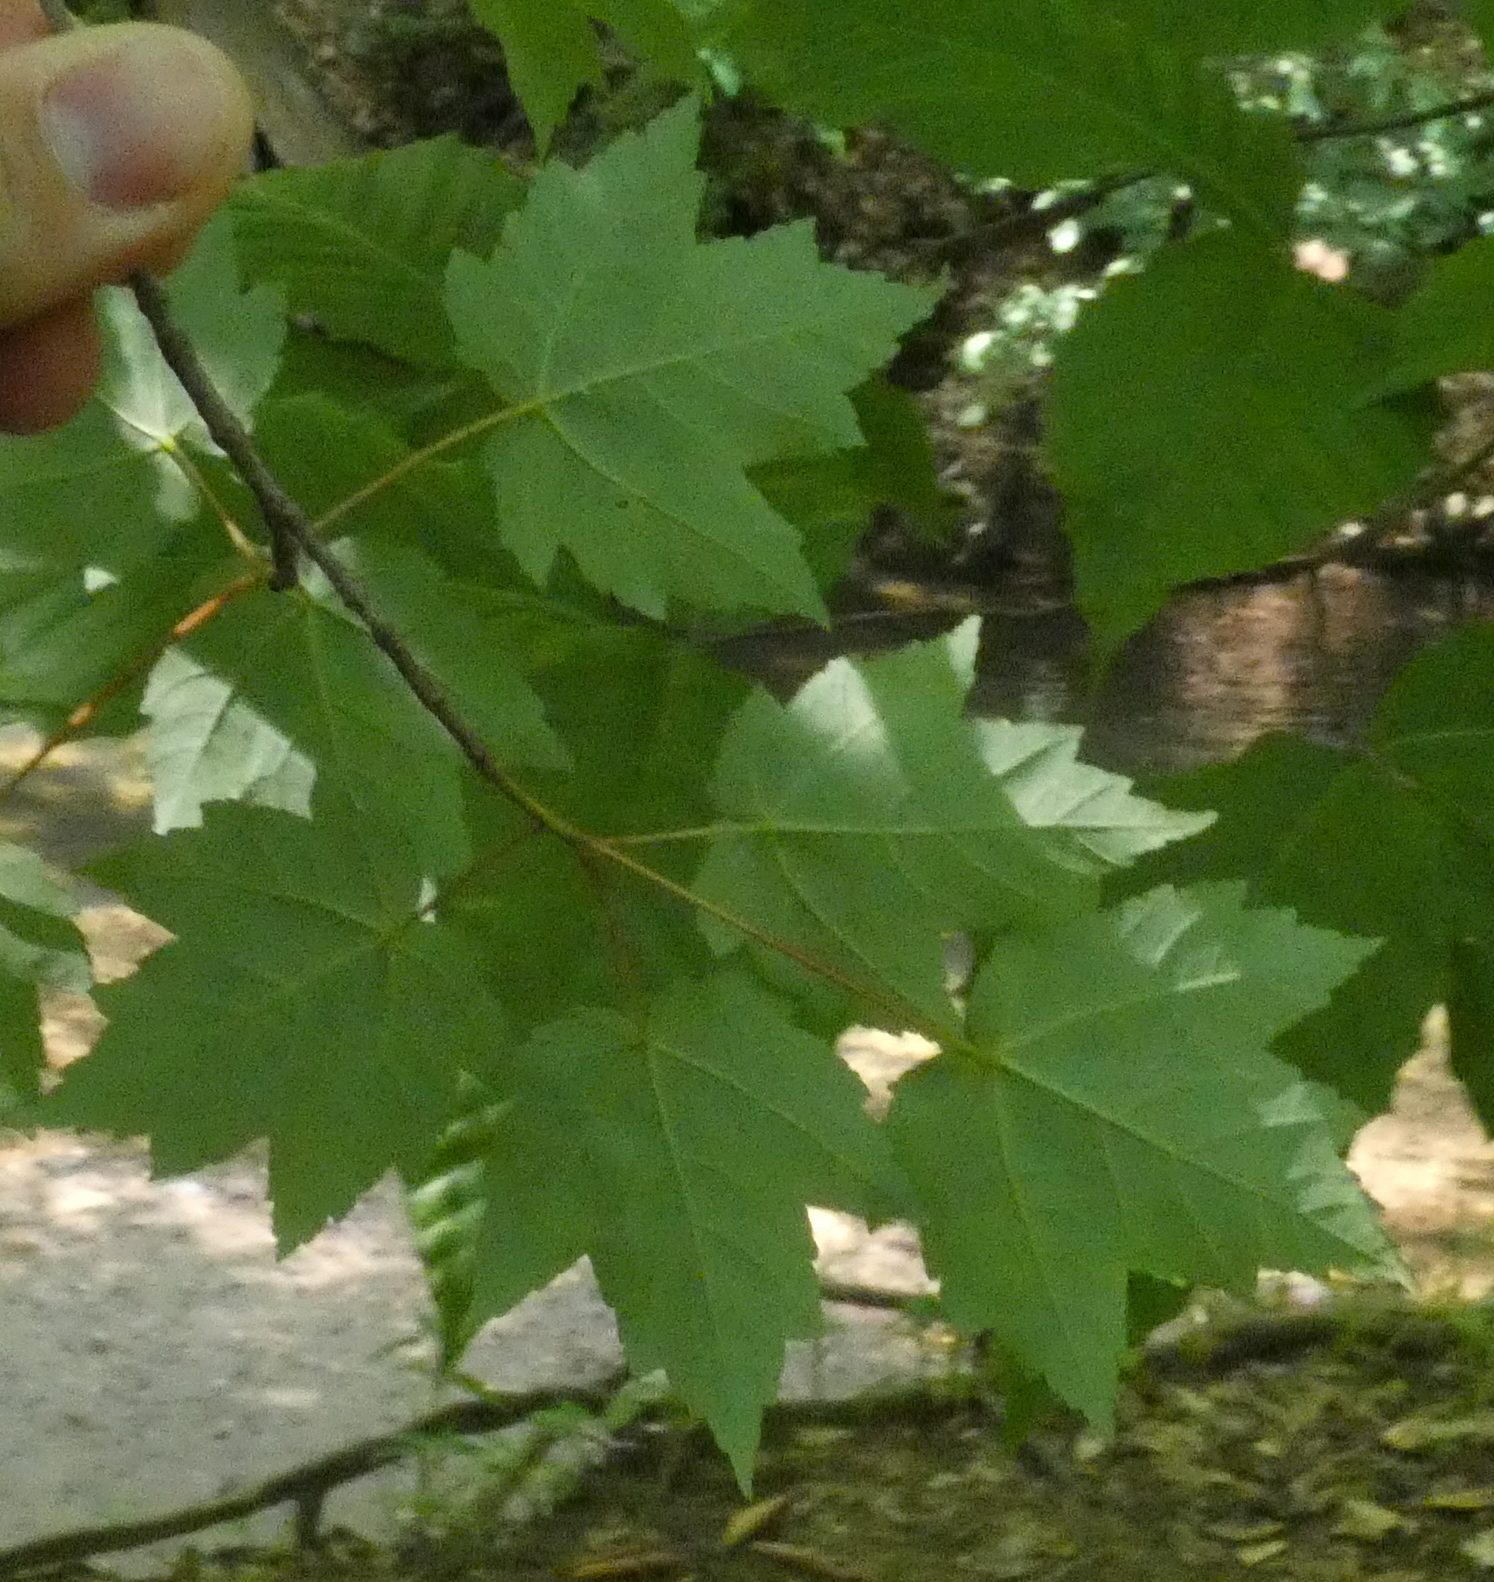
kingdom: Plantae
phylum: Tracheophyta
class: Magnoliopsida
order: Sapindales
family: Sapindaceae
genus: Acer
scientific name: Acer rubrum
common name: Red maple
